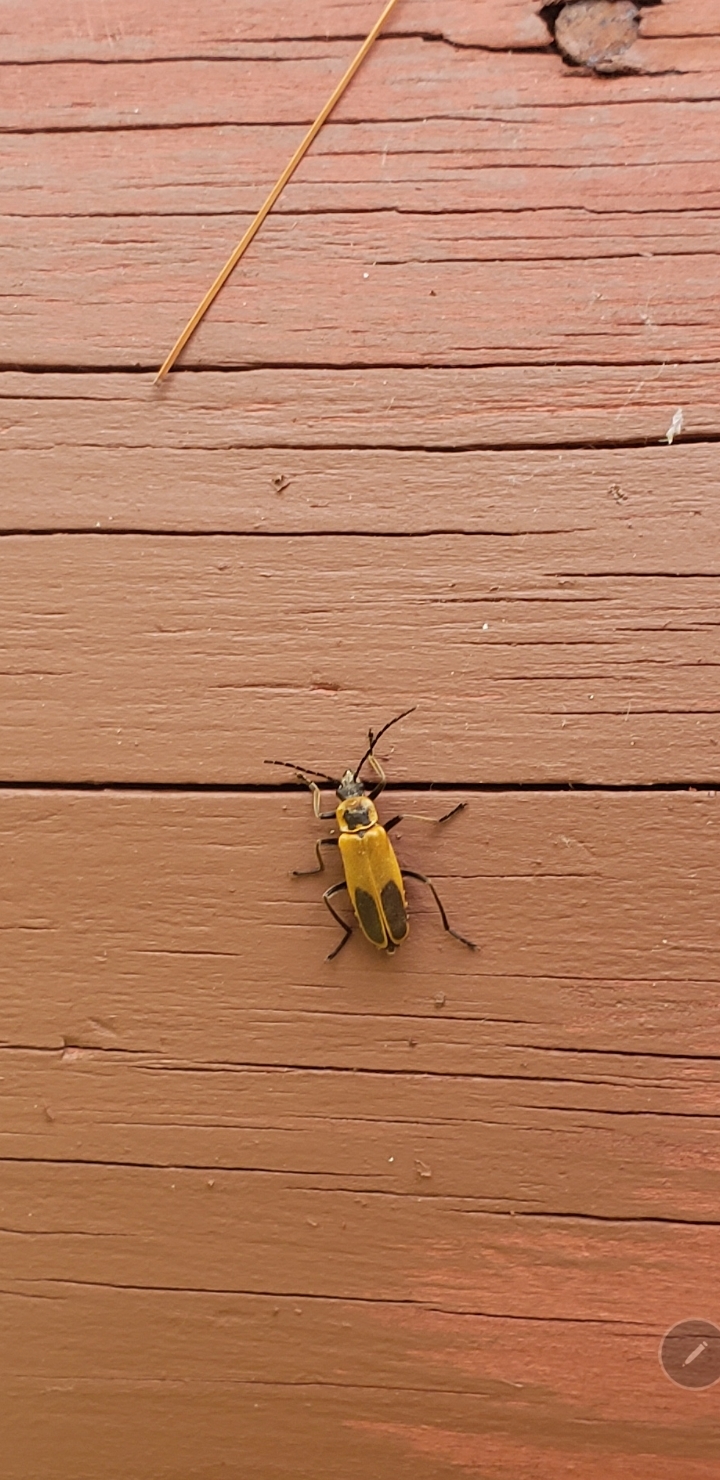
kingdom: Animalia
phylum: Arthropoda
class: Insecta
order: Coleoptera
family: Cantharidae
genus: Chauliognathus
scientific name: Chauliognathus pensylvanicus
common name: Goldenrod soldier beetle
